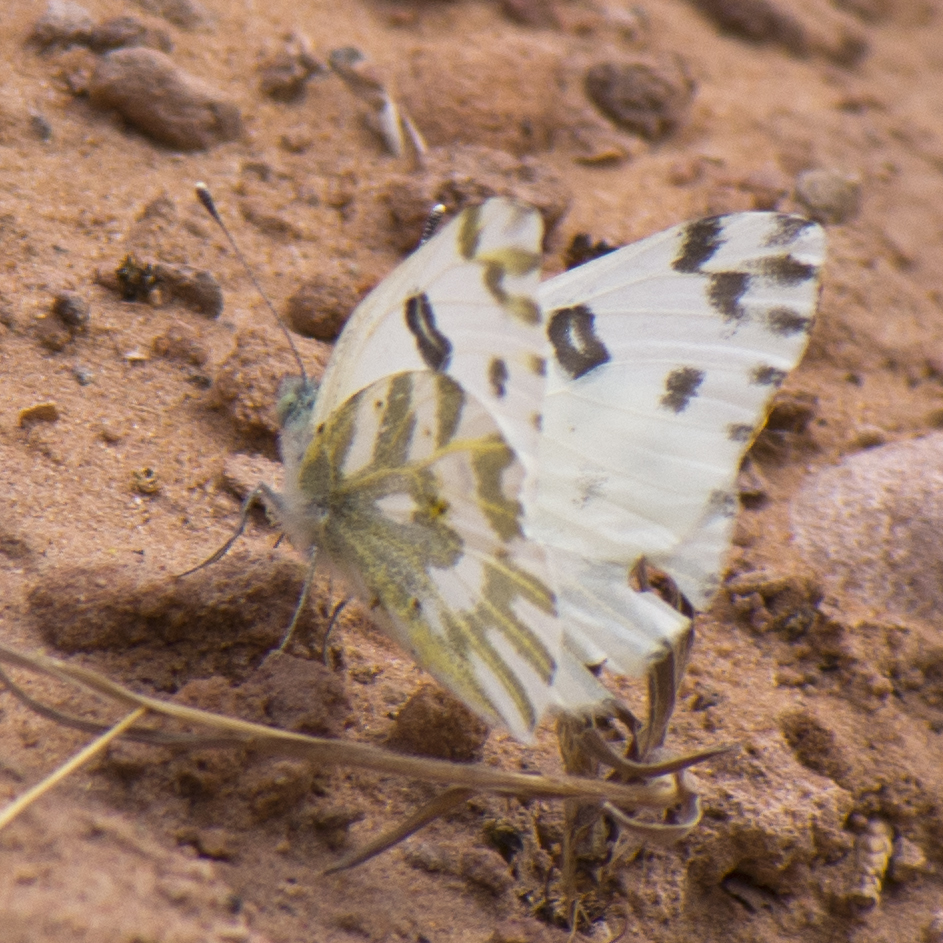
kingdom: Animalia
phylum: Arthropoda
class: Insecta
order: Lepidoptera
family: Pieridae
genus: Pontia
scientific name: Pontia beckerii
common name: Becker's white
